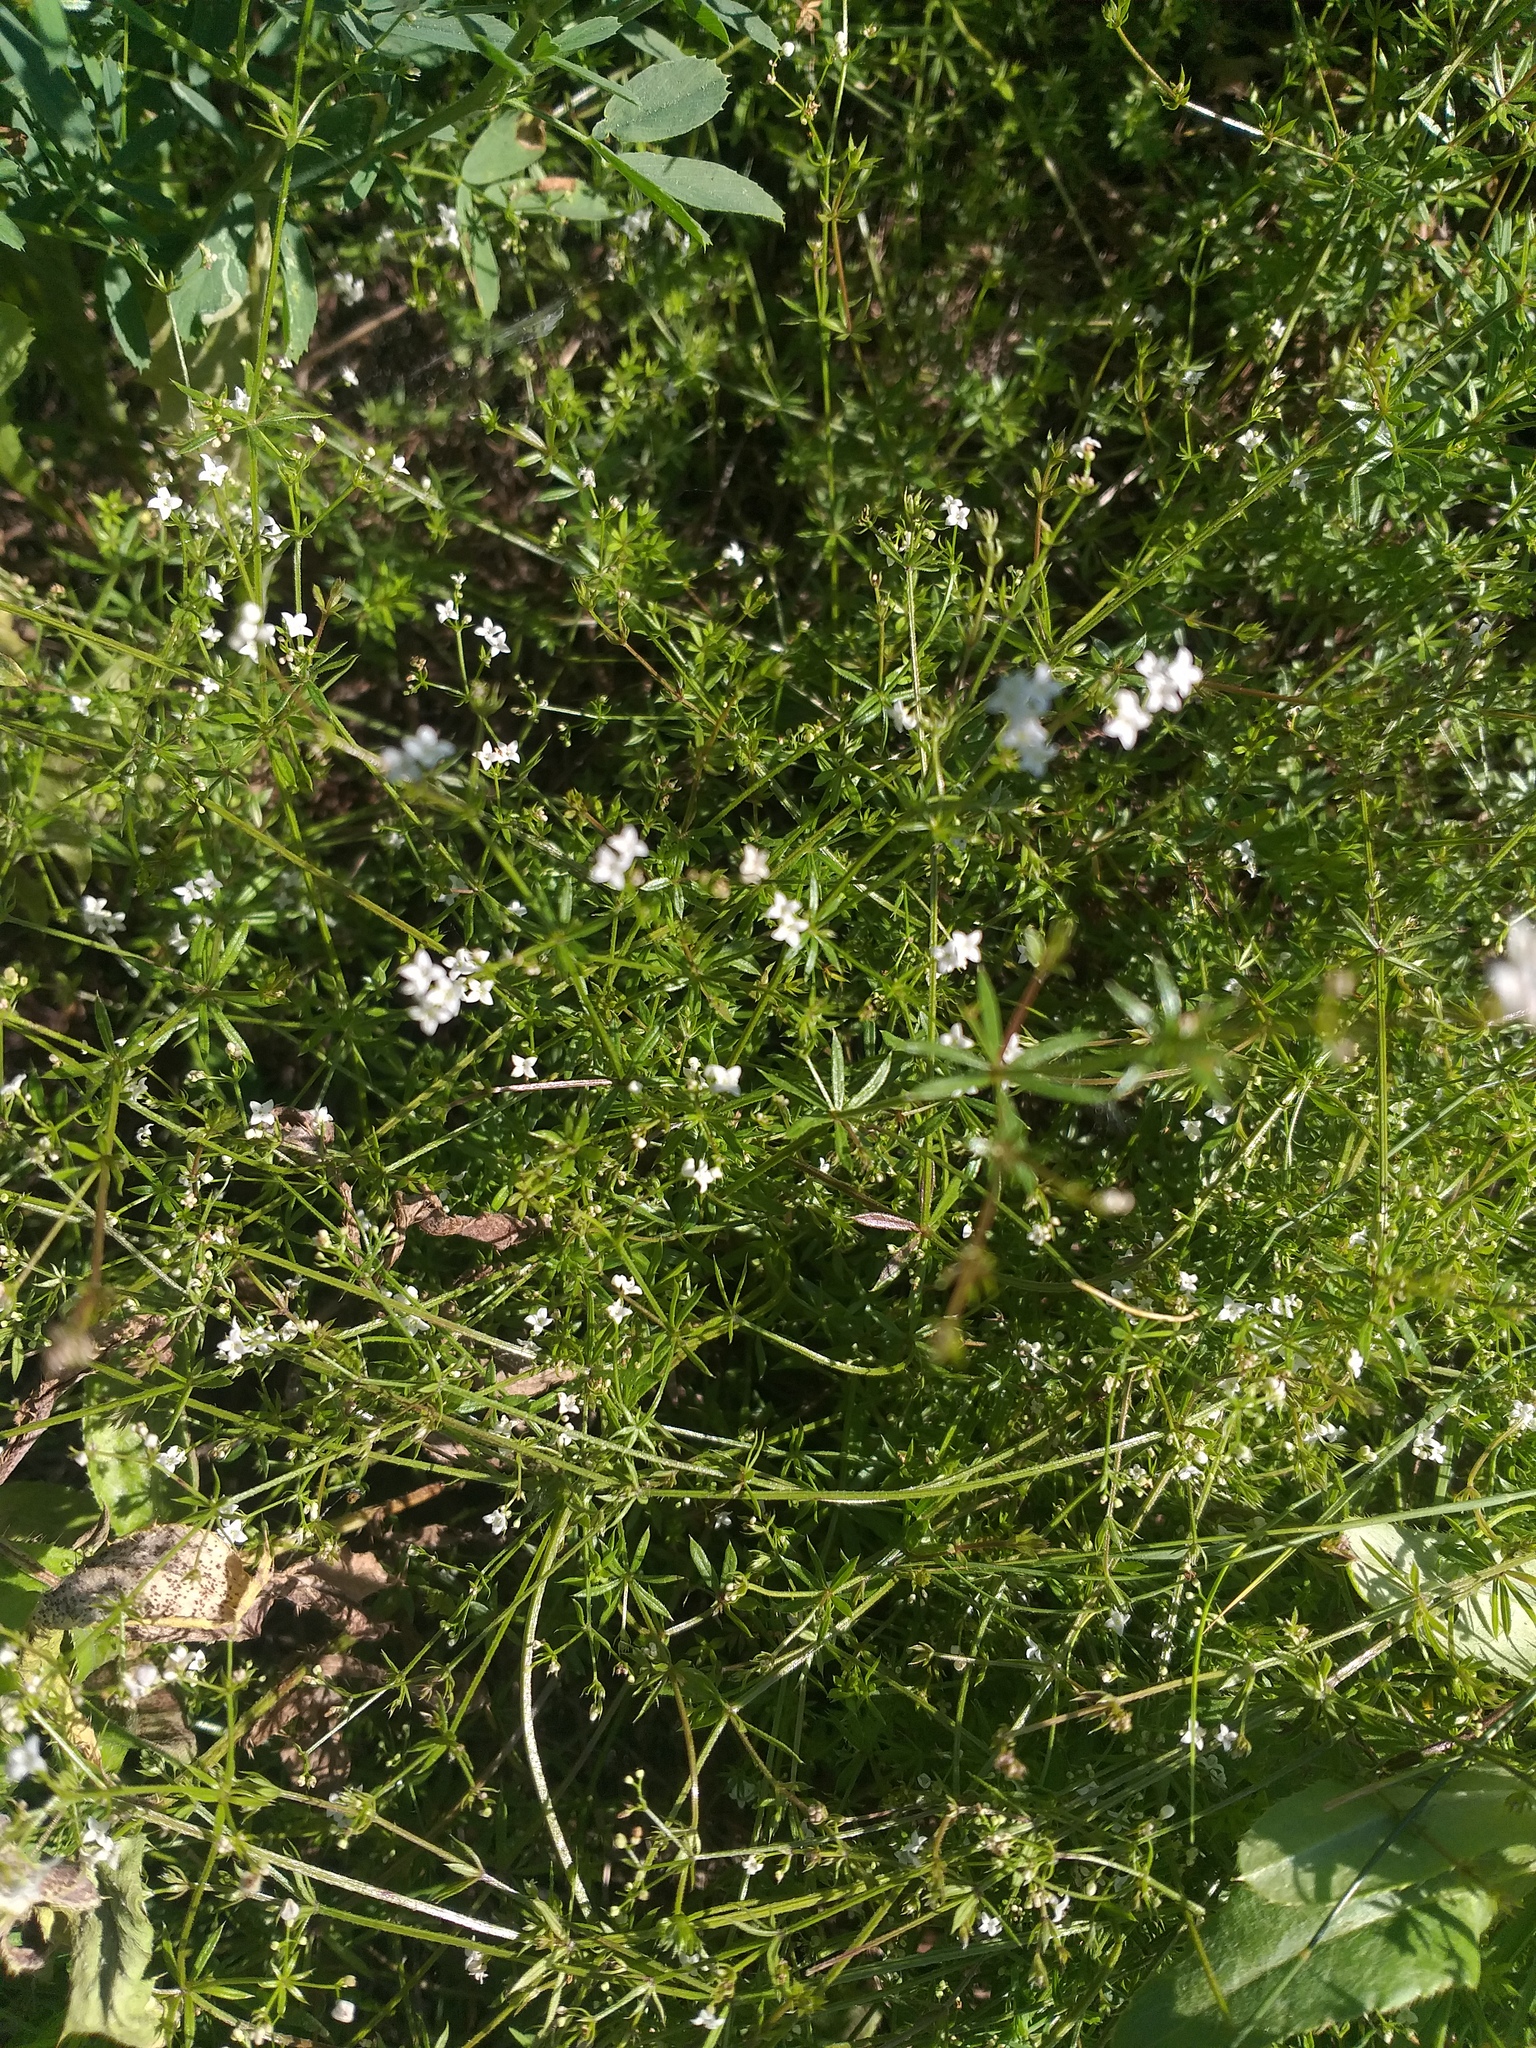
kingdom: Plantae
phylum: Tracheophyta
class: Magnoliopsida
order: Gentianales
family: Rubiaceae
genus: Galium
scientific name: Galium uliginosum
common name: Fen bedstraw
